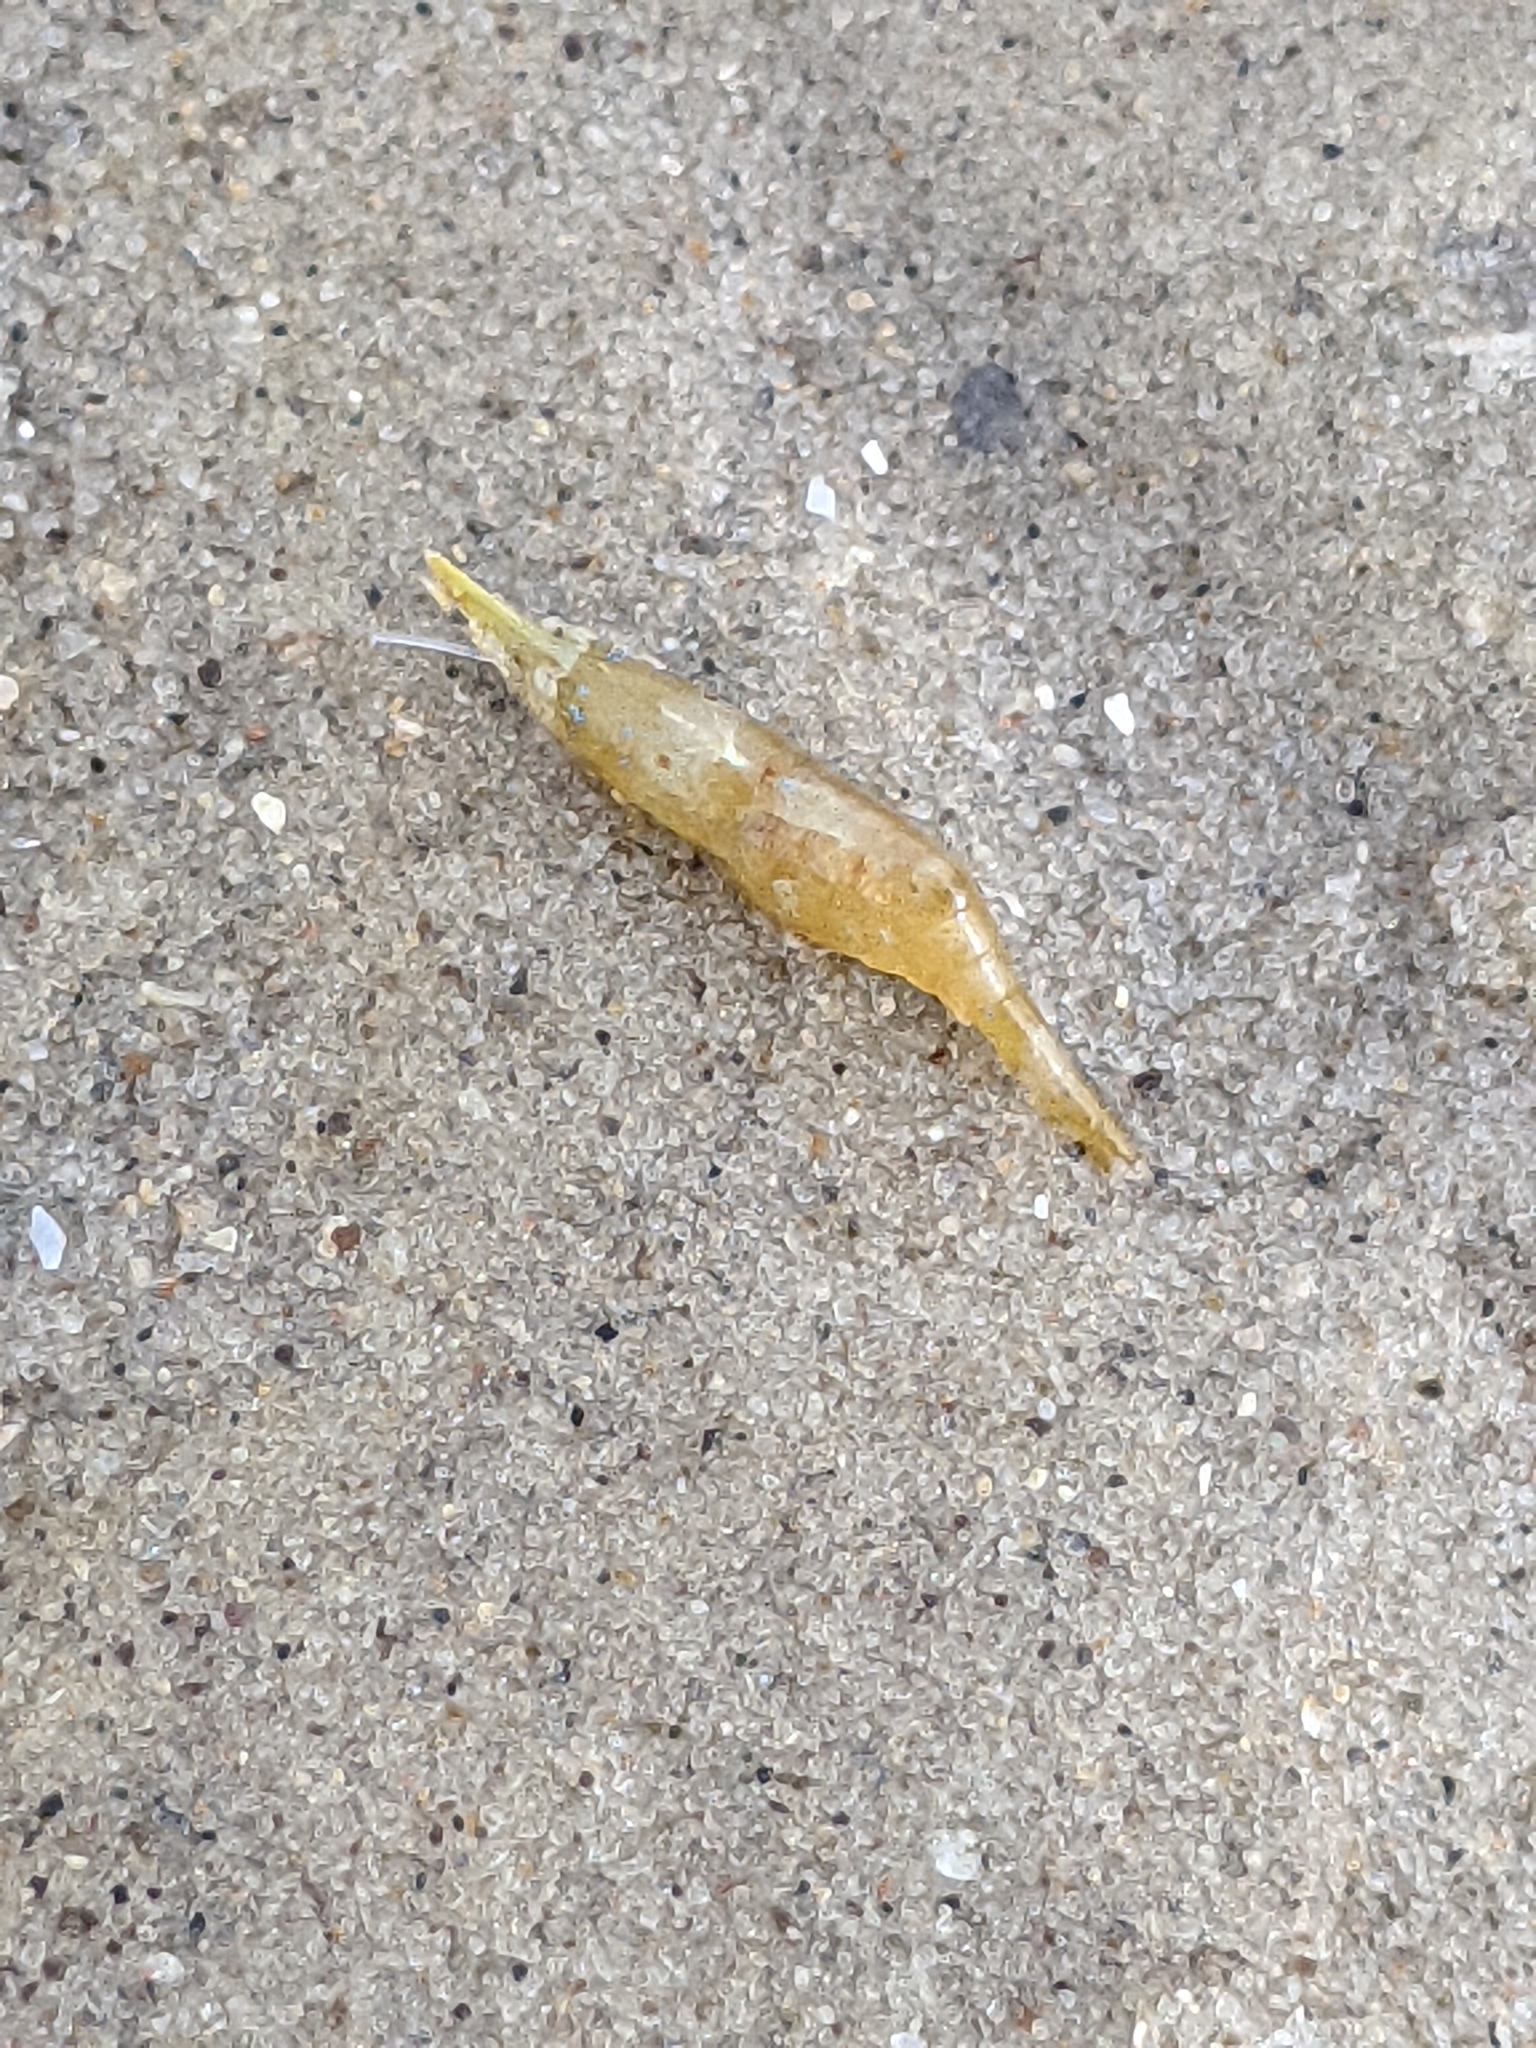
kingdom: Animalia
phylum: Arthropoda
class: Malacostraca
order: Decapoda
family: Hippolytidae
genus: Latreutes
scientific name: Latreutes fucorum
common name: Slender sargassum shrimp
